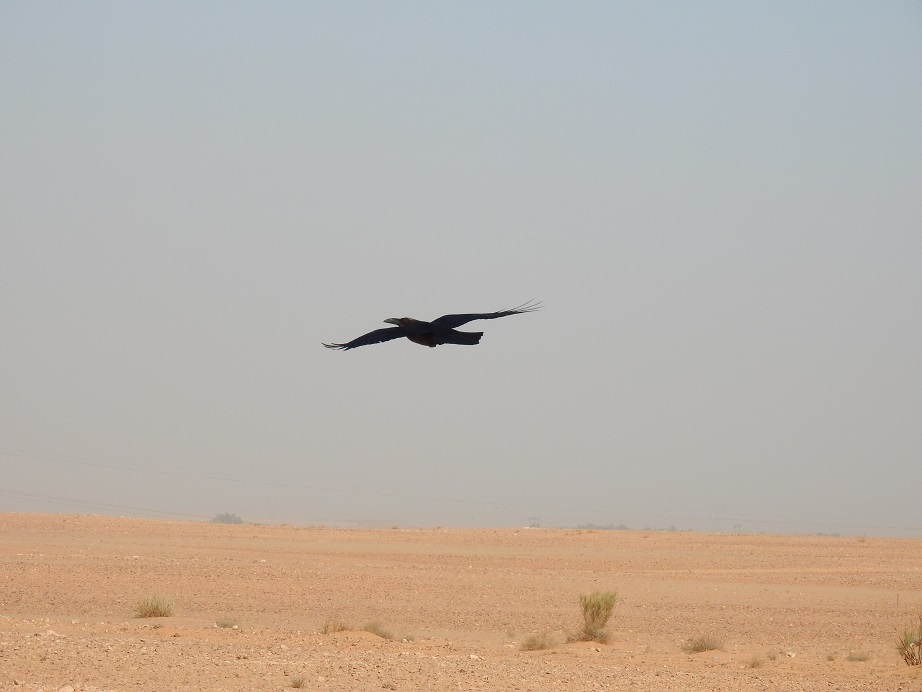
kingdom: Animalia
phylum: Chordata
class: Aves
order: Passeriformes
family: Corvidae
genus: Corvus
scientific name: Corvus corax
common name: Common raven
